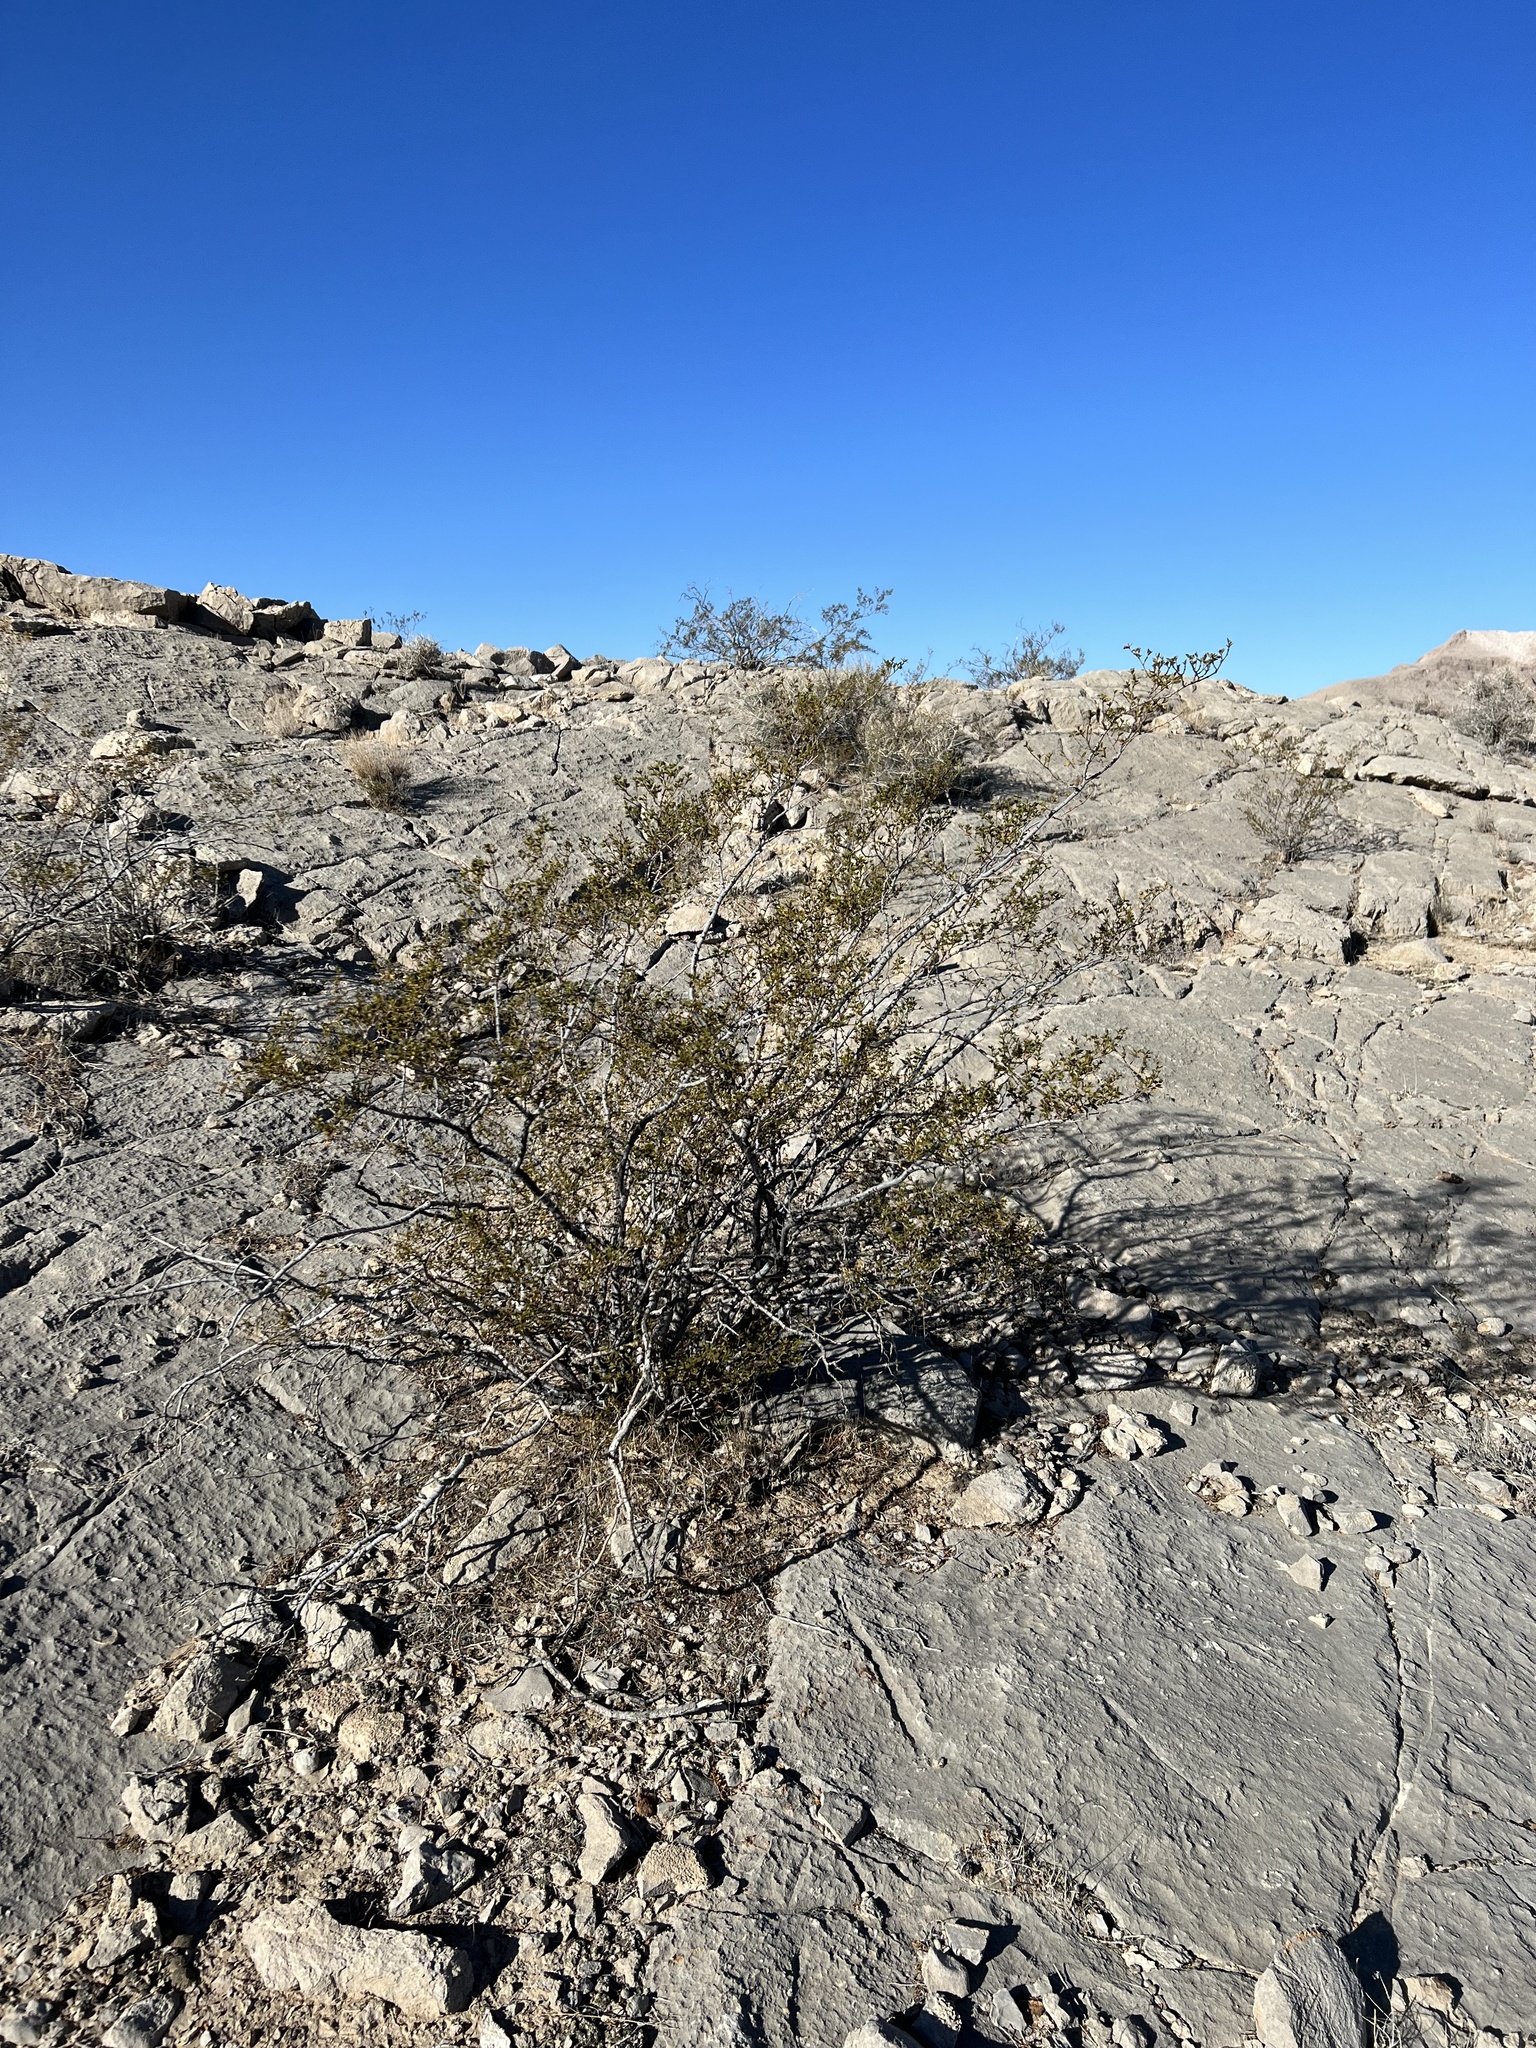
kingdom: Plantae
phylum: Tracheophyta
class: Magnoliopsida
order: Zygophyllales
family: Zygophyllaceae
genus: Larrea
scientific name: Larrea tridentata
